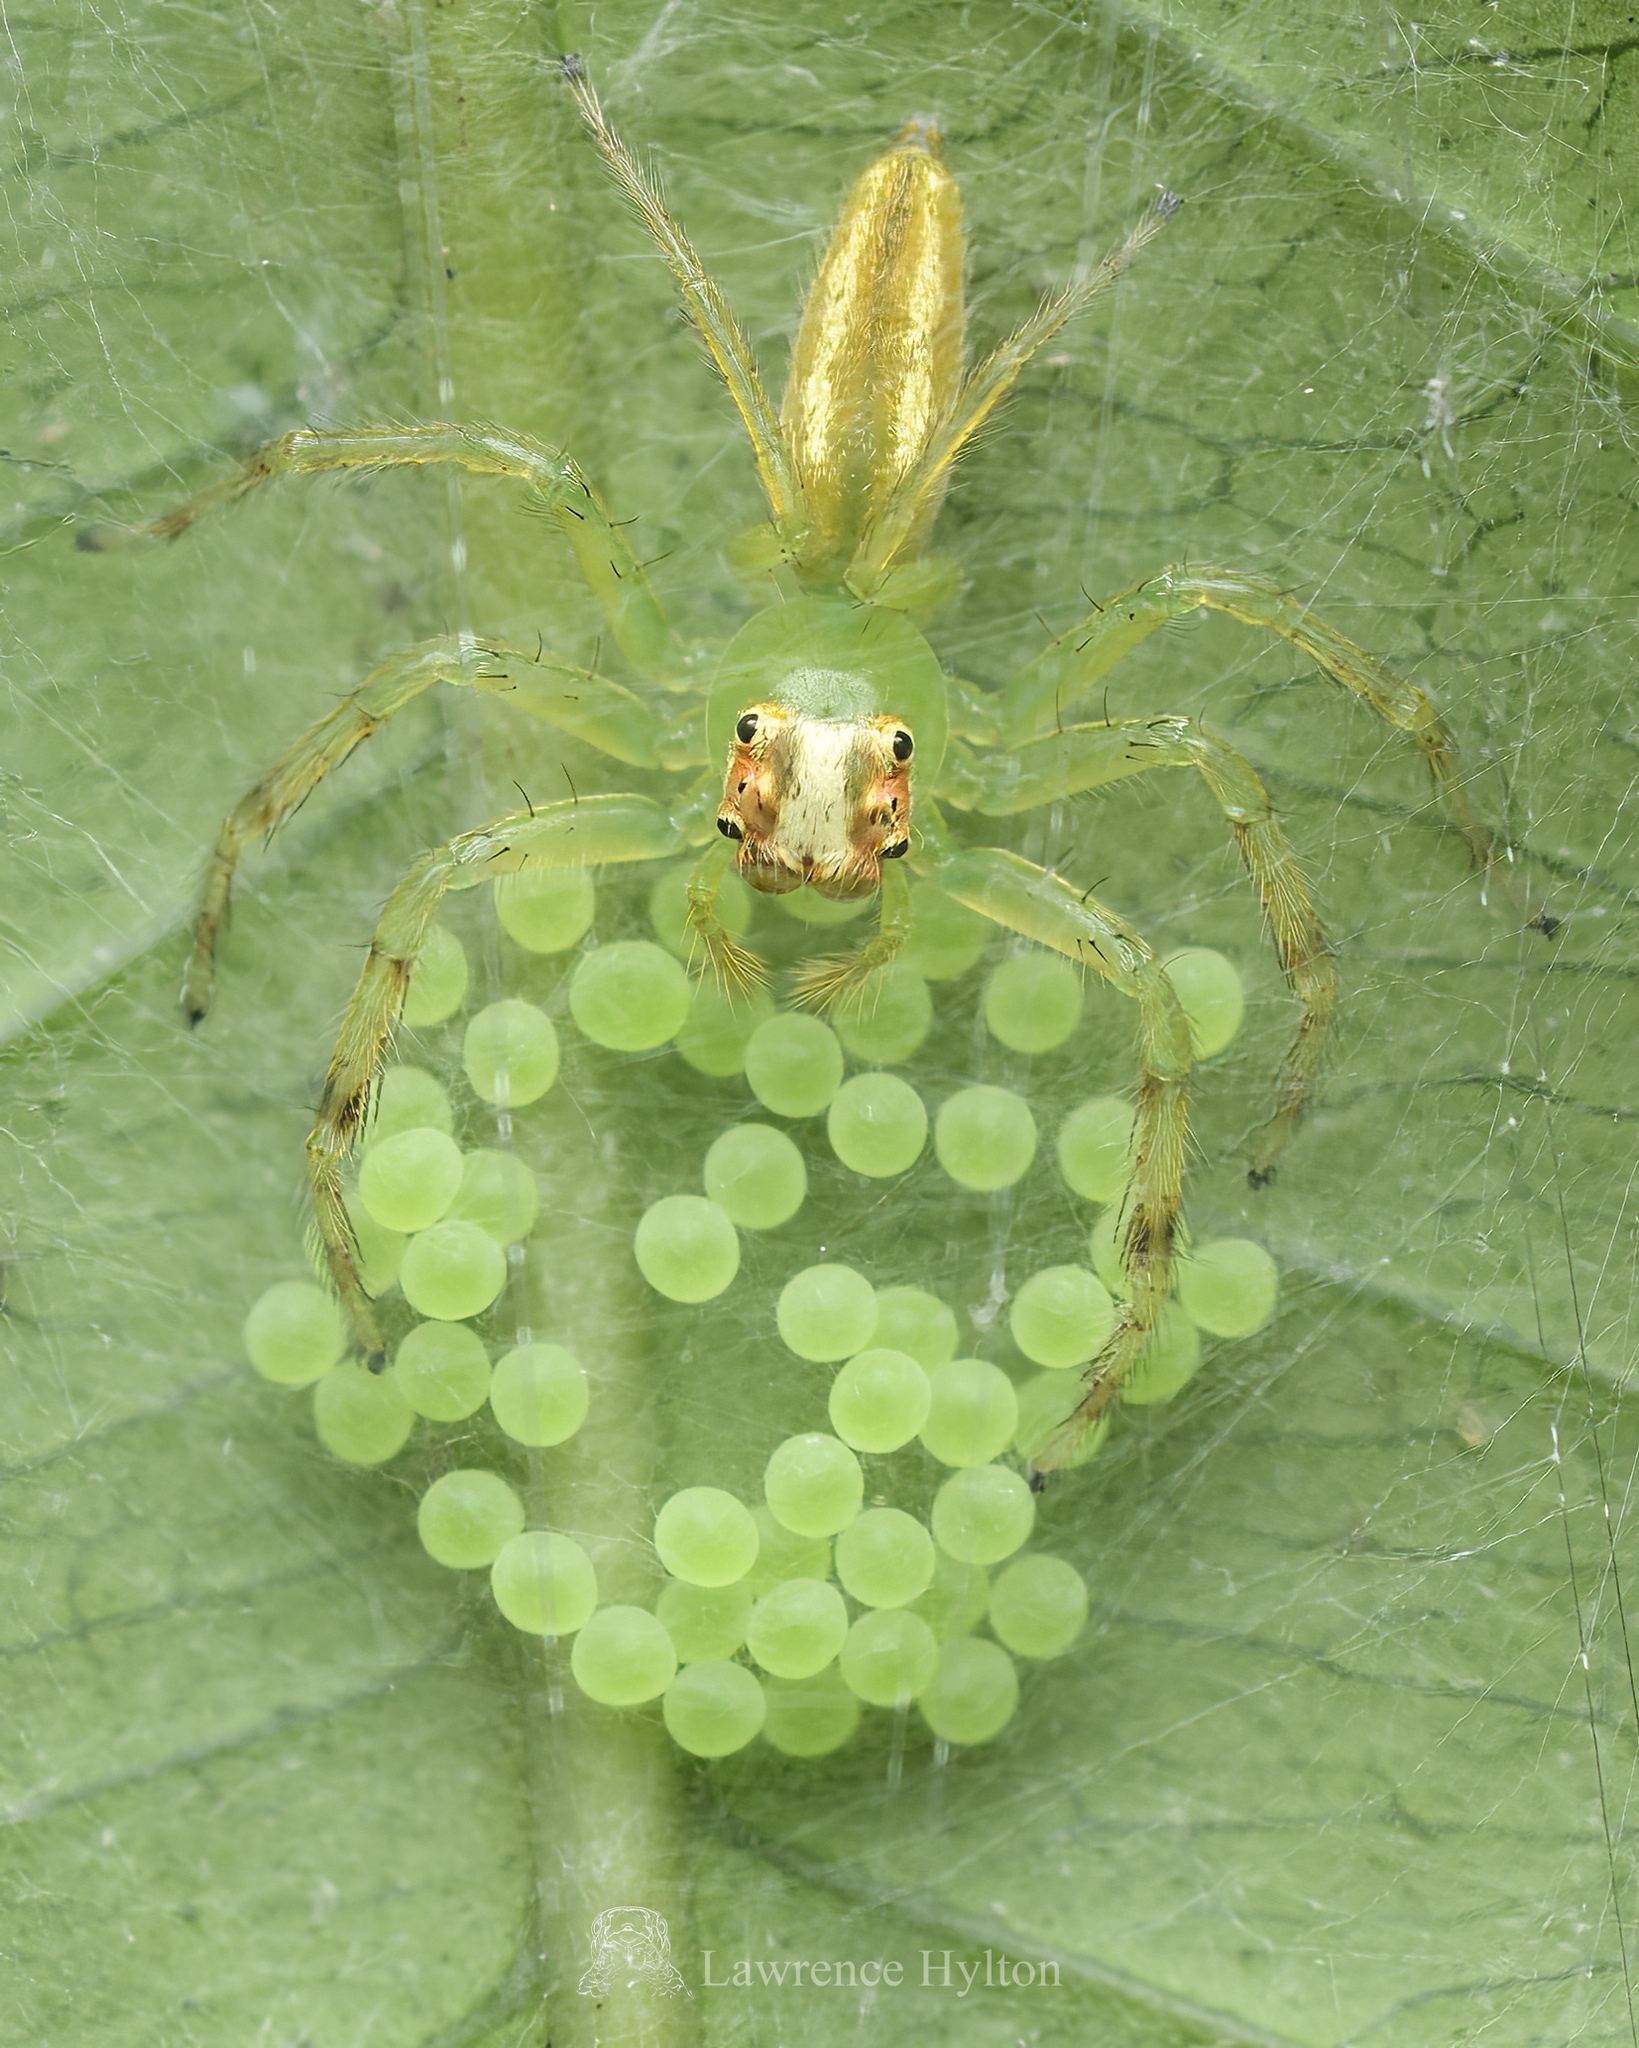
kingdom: Animalia
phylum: Arthropoda
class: Arachnida
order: Araneae
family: Salticidae
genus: Epeus
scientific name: Epeus glorius
